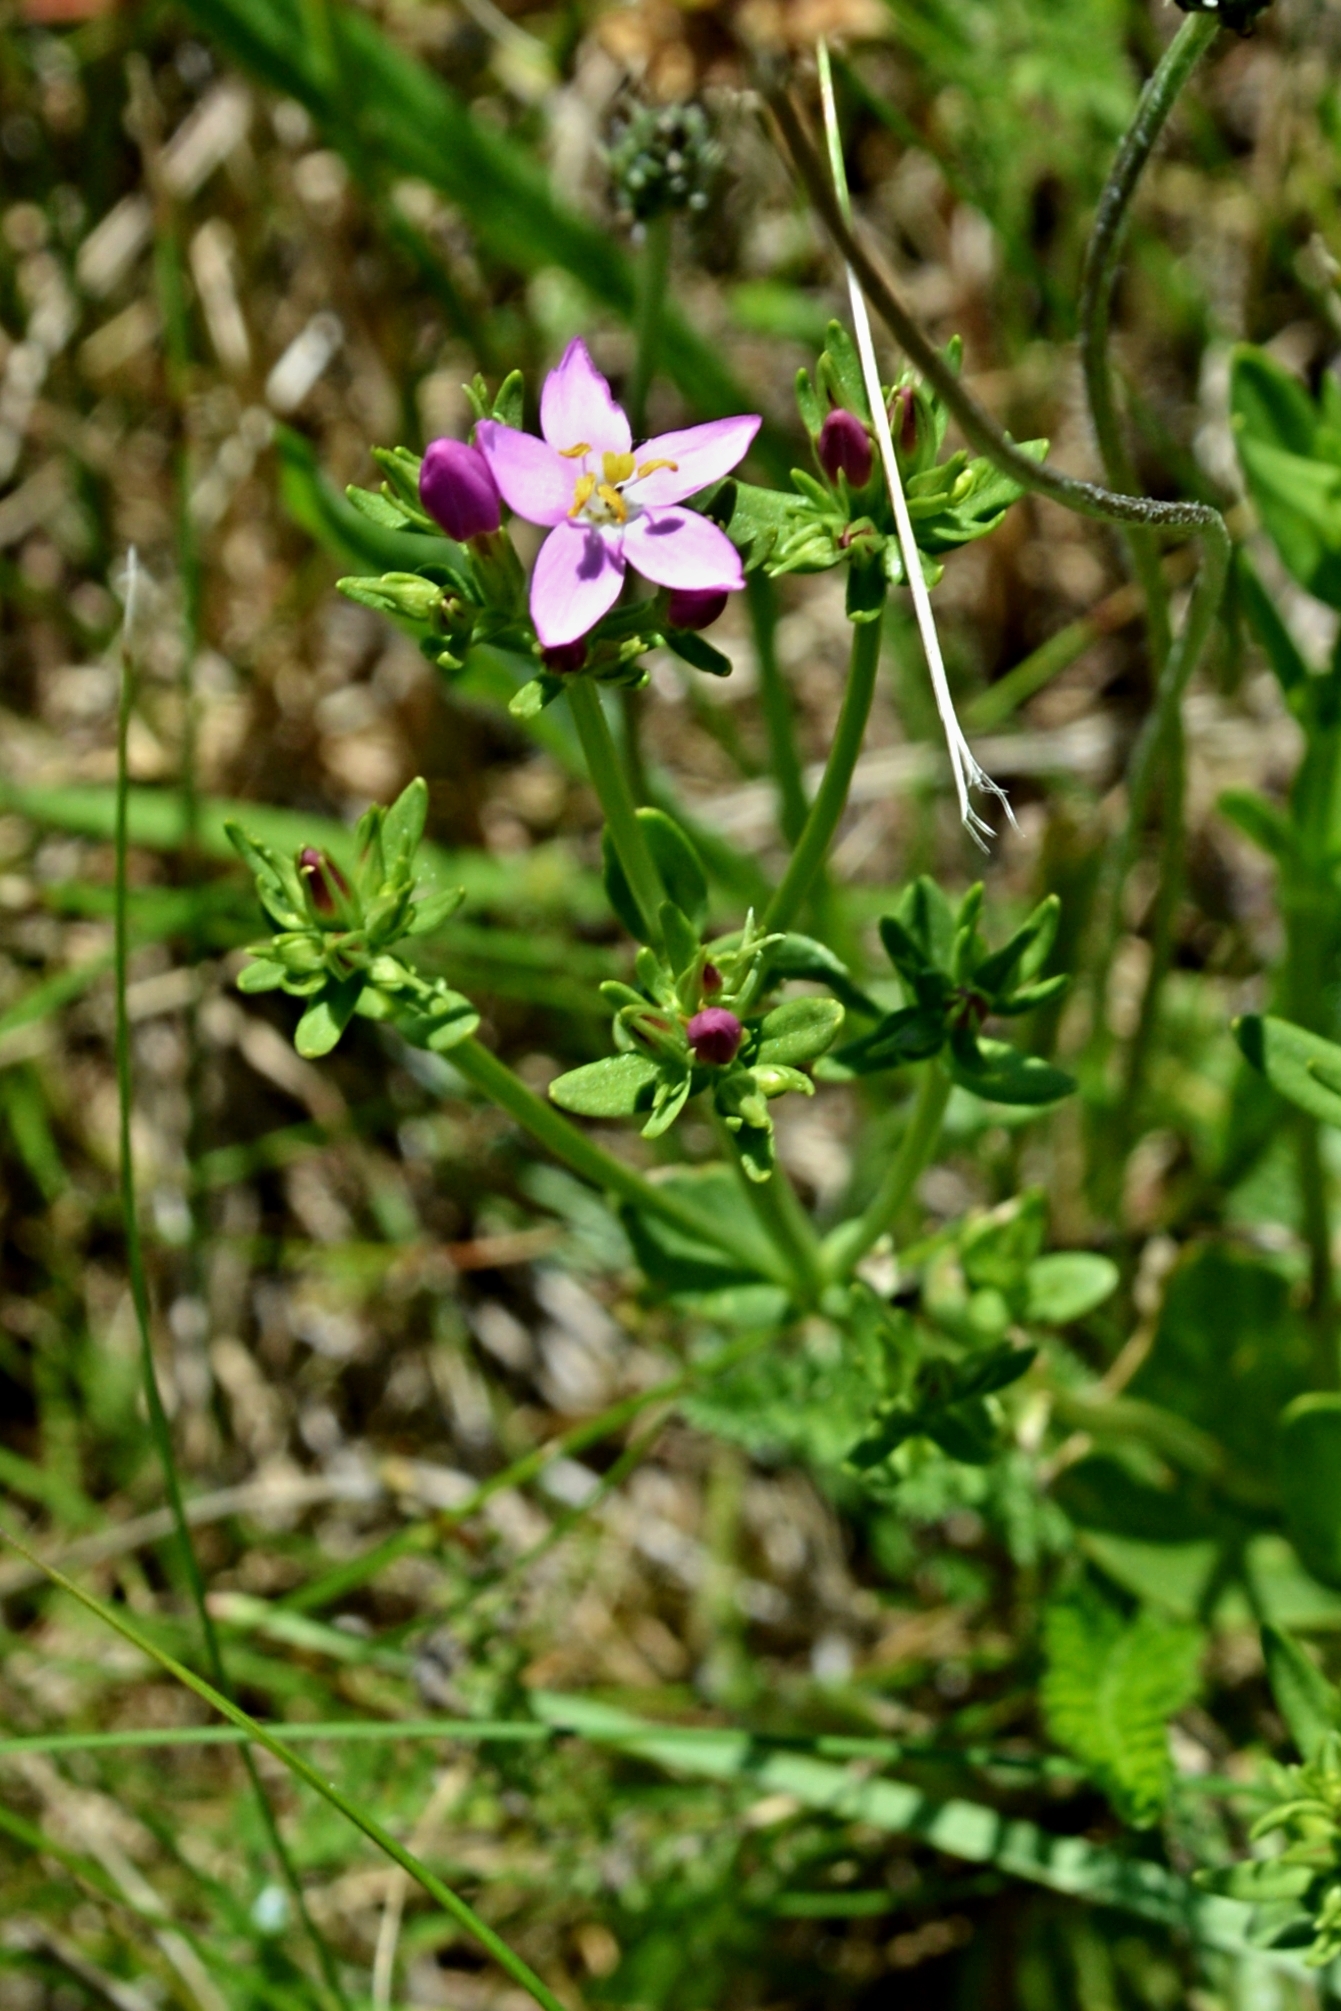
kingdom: Plantae
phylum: Tracheophyta
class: Magnoliopsida
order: Gentianales
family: Gentianaceae
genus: Centaurium
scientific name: Centaurium erythraea
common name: Common centaury
